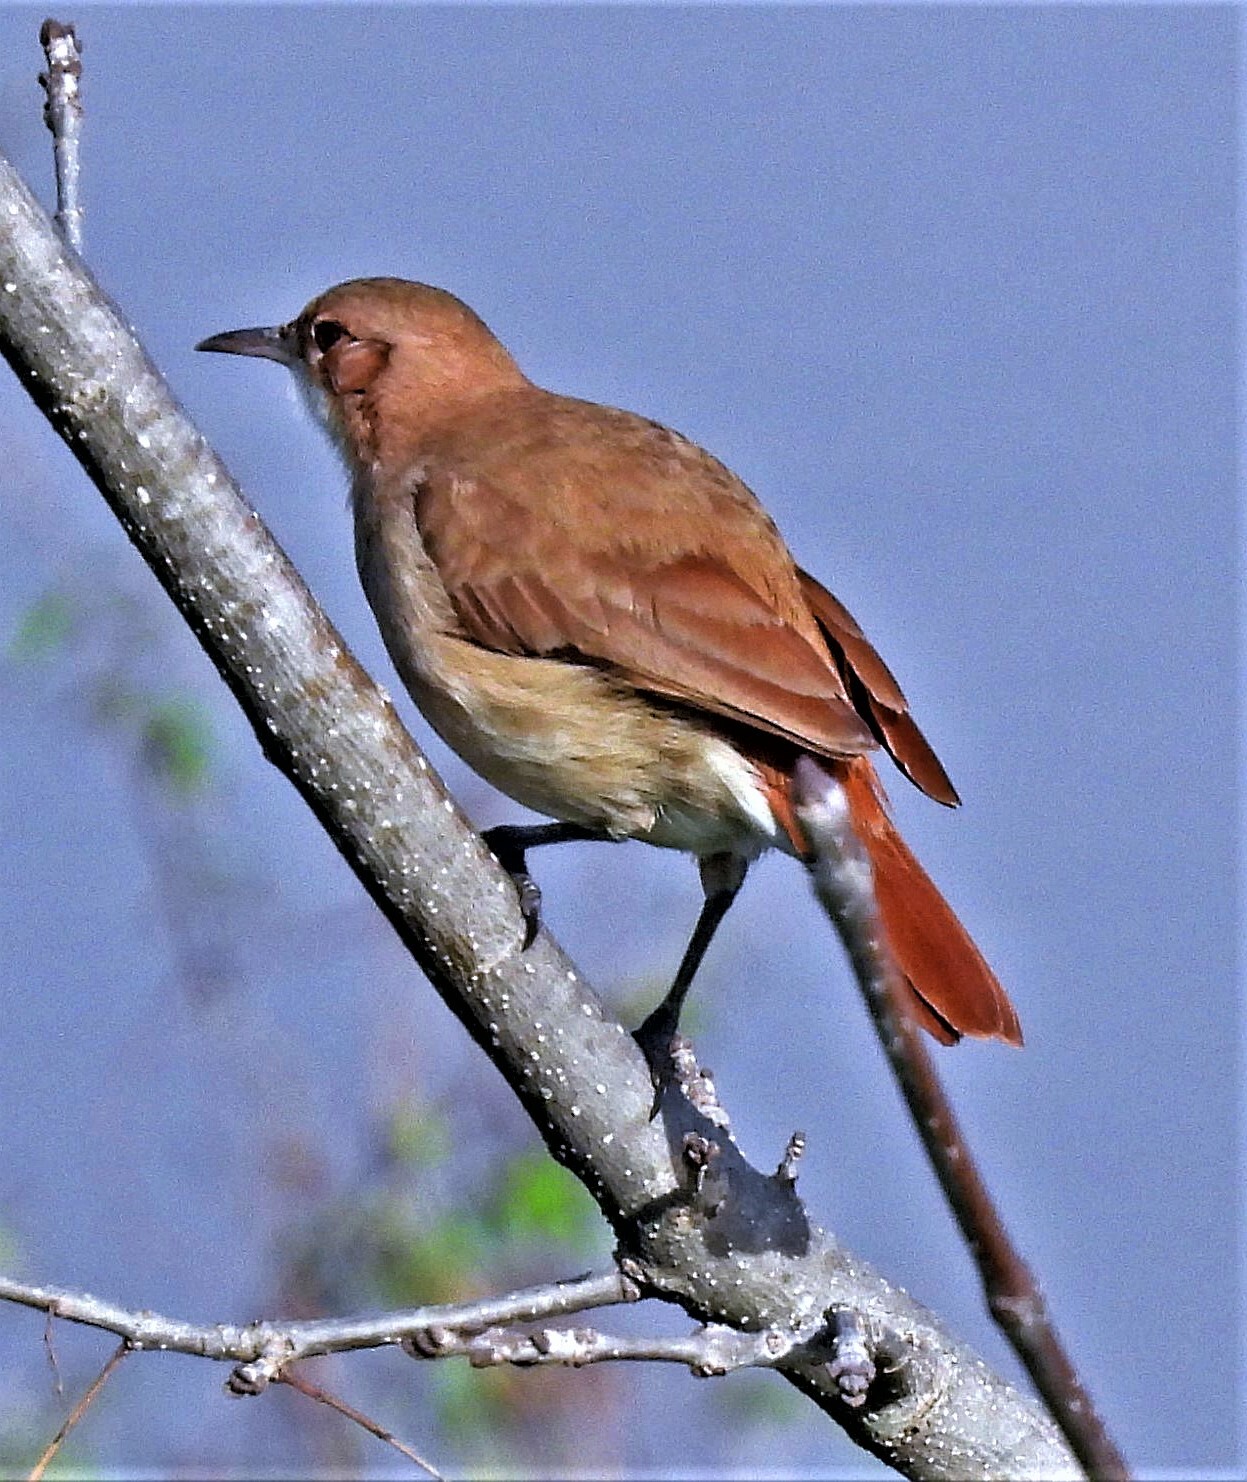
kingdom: Animalia
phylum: Chordata
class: Aves
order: Passeriformes
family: Furnariidae
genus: Furnarius
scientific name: Furnarius rufus
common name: Rufous hornero
